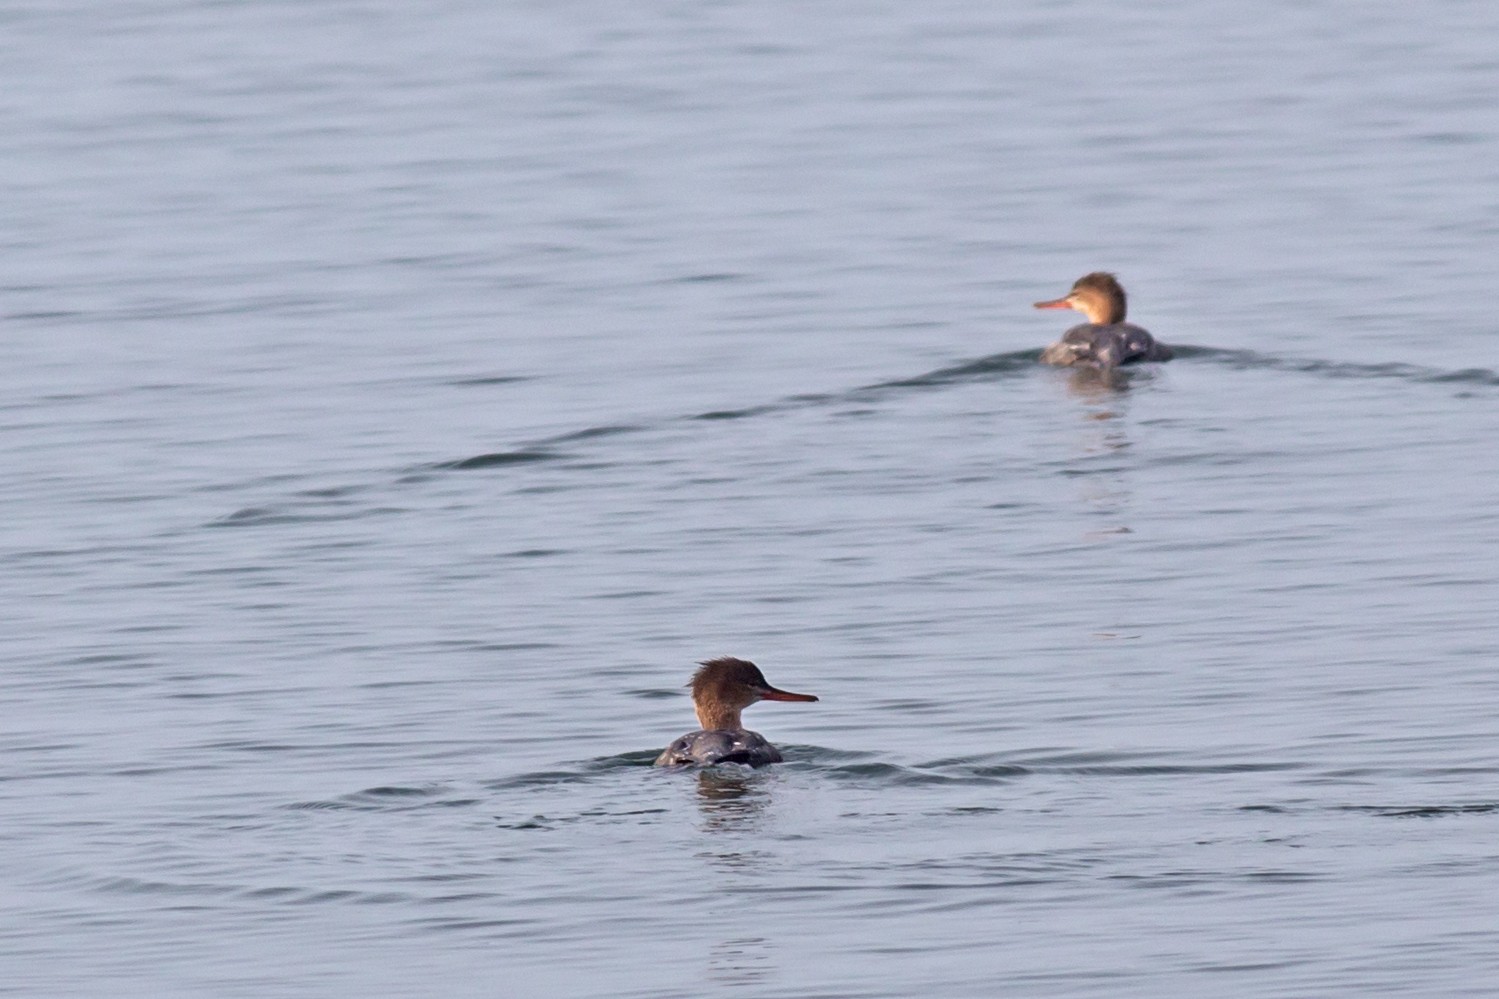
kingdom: Animalia
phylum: Chordata
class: Aves
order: Anseriformes
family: Anatidae
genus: Mergus
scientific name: Mergus serrator
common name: Red-breasted merganser
